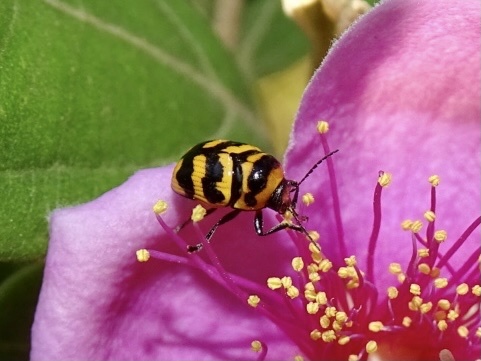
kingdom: Animalia
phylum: Arthropoda
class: Insecta
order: Coleoptera
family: Chrysomelidae
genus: Cryptocephalus
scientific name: Cryptocephalus trifasciatus
